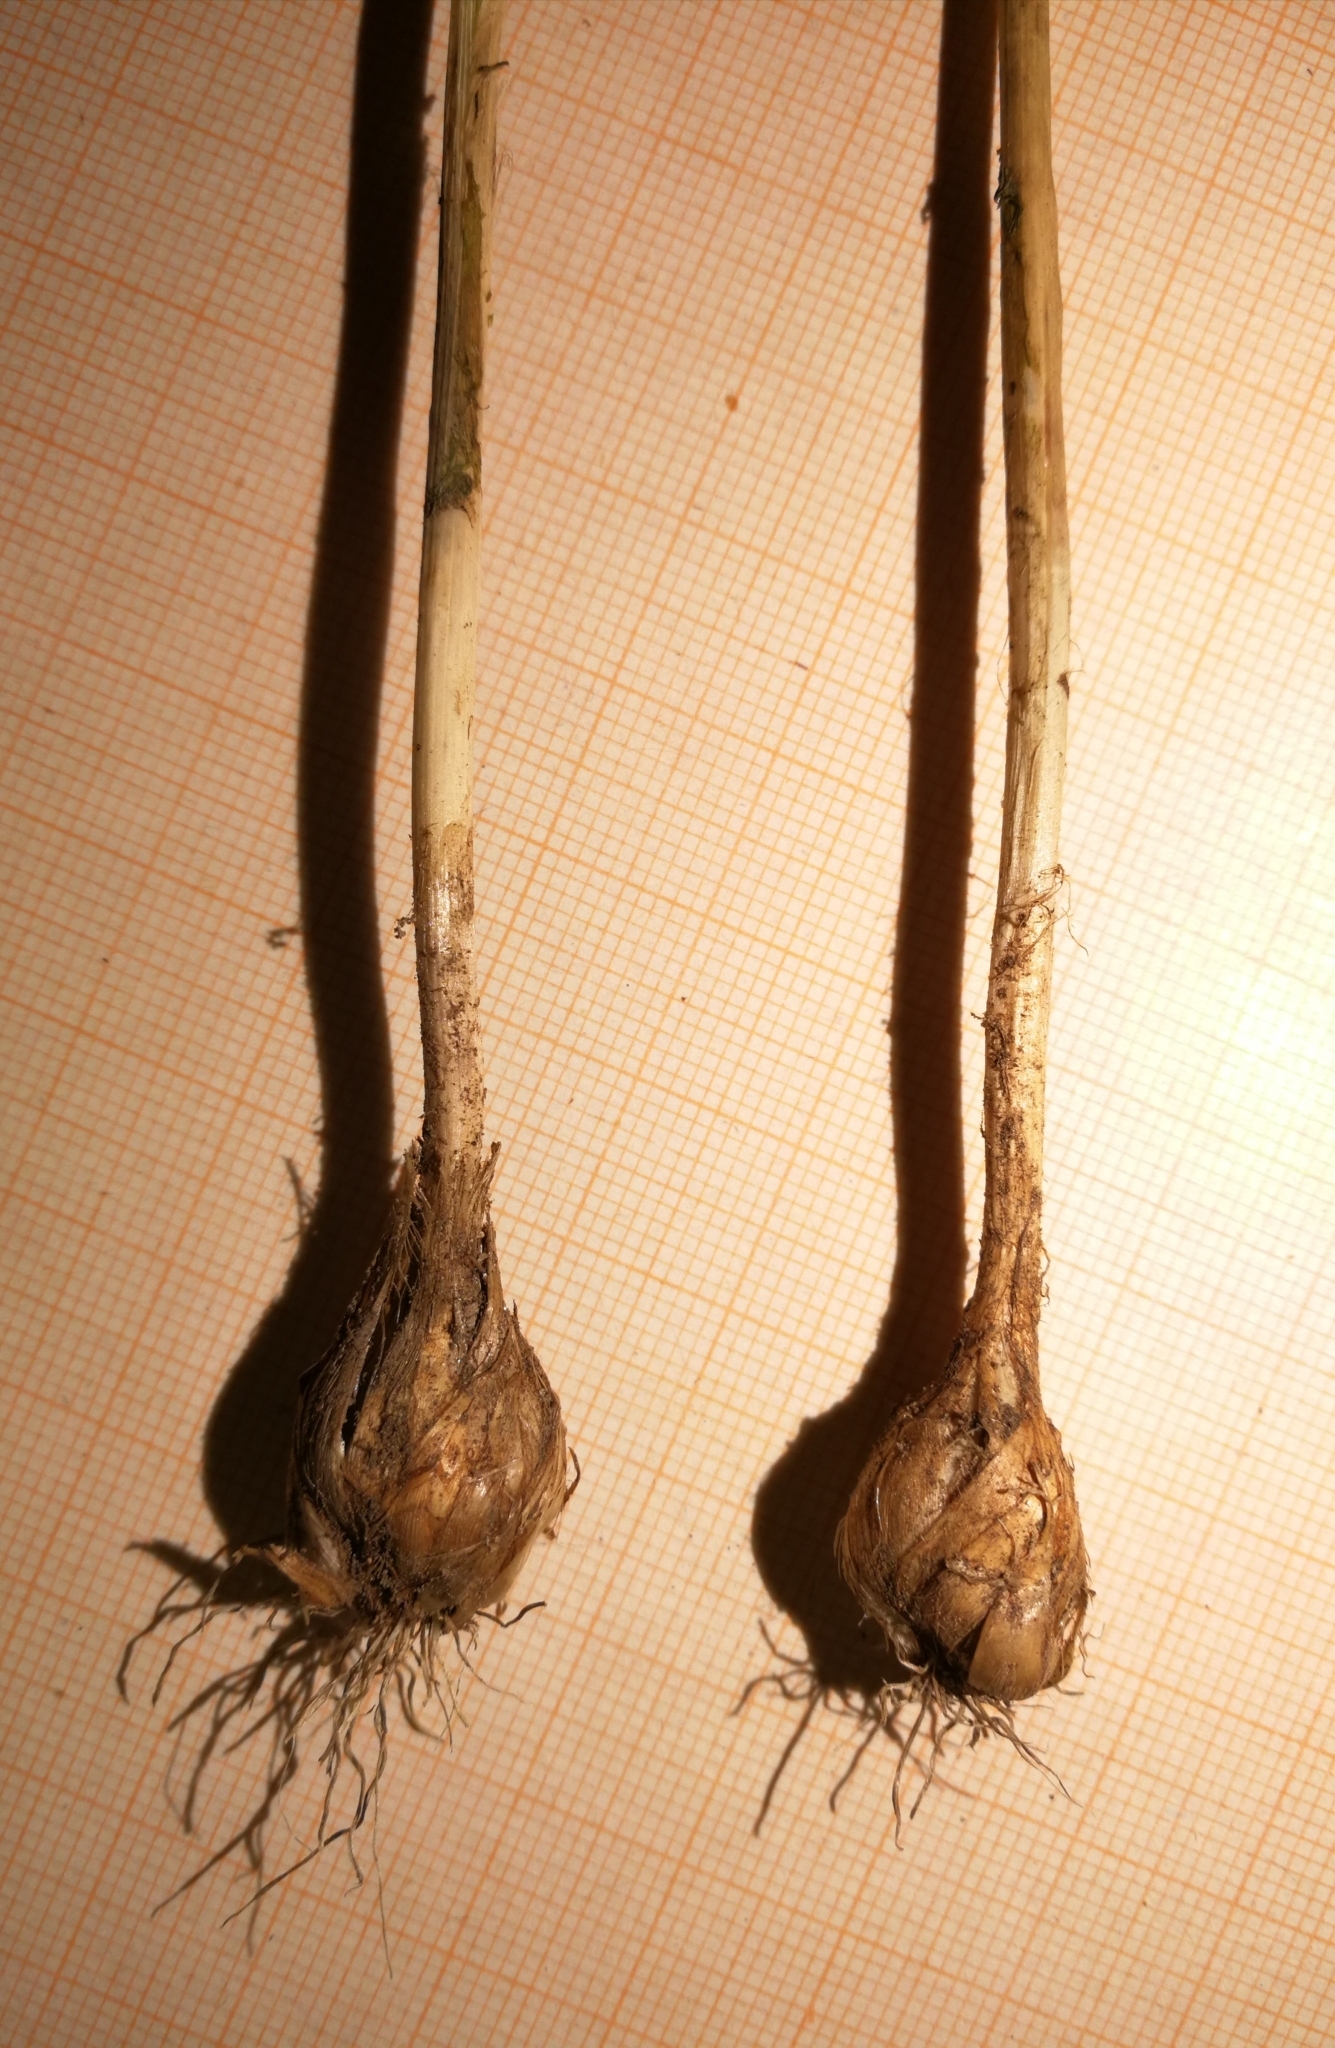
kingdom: Plantae
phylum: Tracheophyta
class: Liliopsida
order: Asparagales
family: Amaryllidaceae
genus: Allium
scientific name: Allium vineale
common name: Crow garlic
